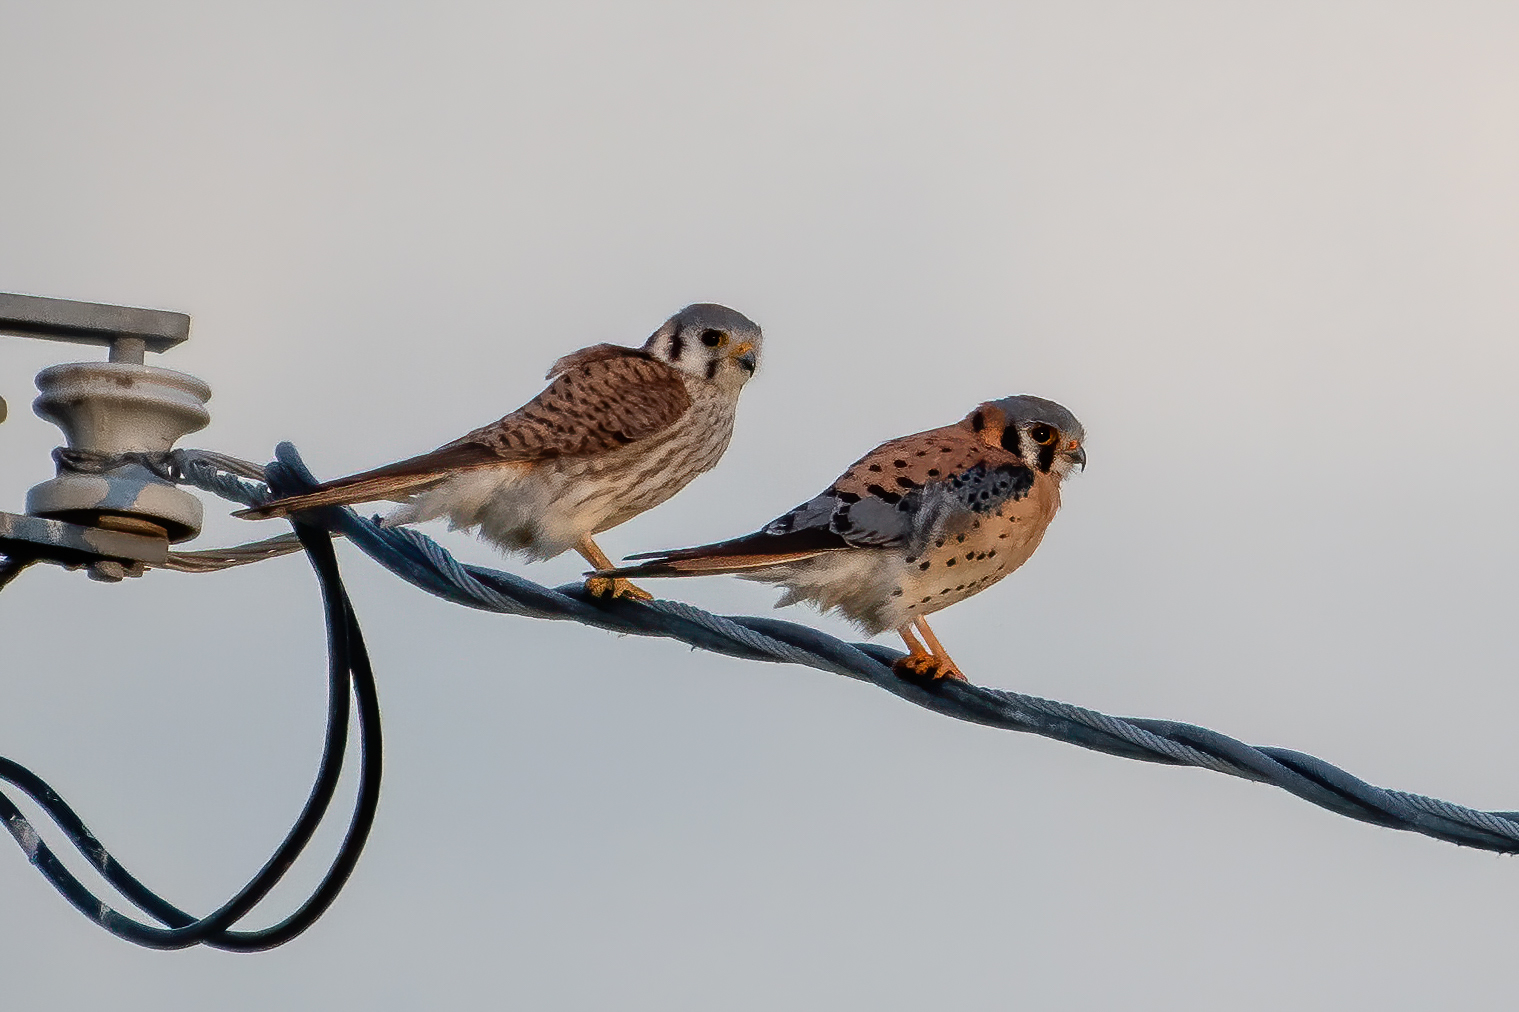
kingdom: Animalia
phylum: Chordata
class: Aves
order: Falconiformes
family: Falconidae
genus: Falco
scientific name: Falco sparverius
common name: American kestrel
